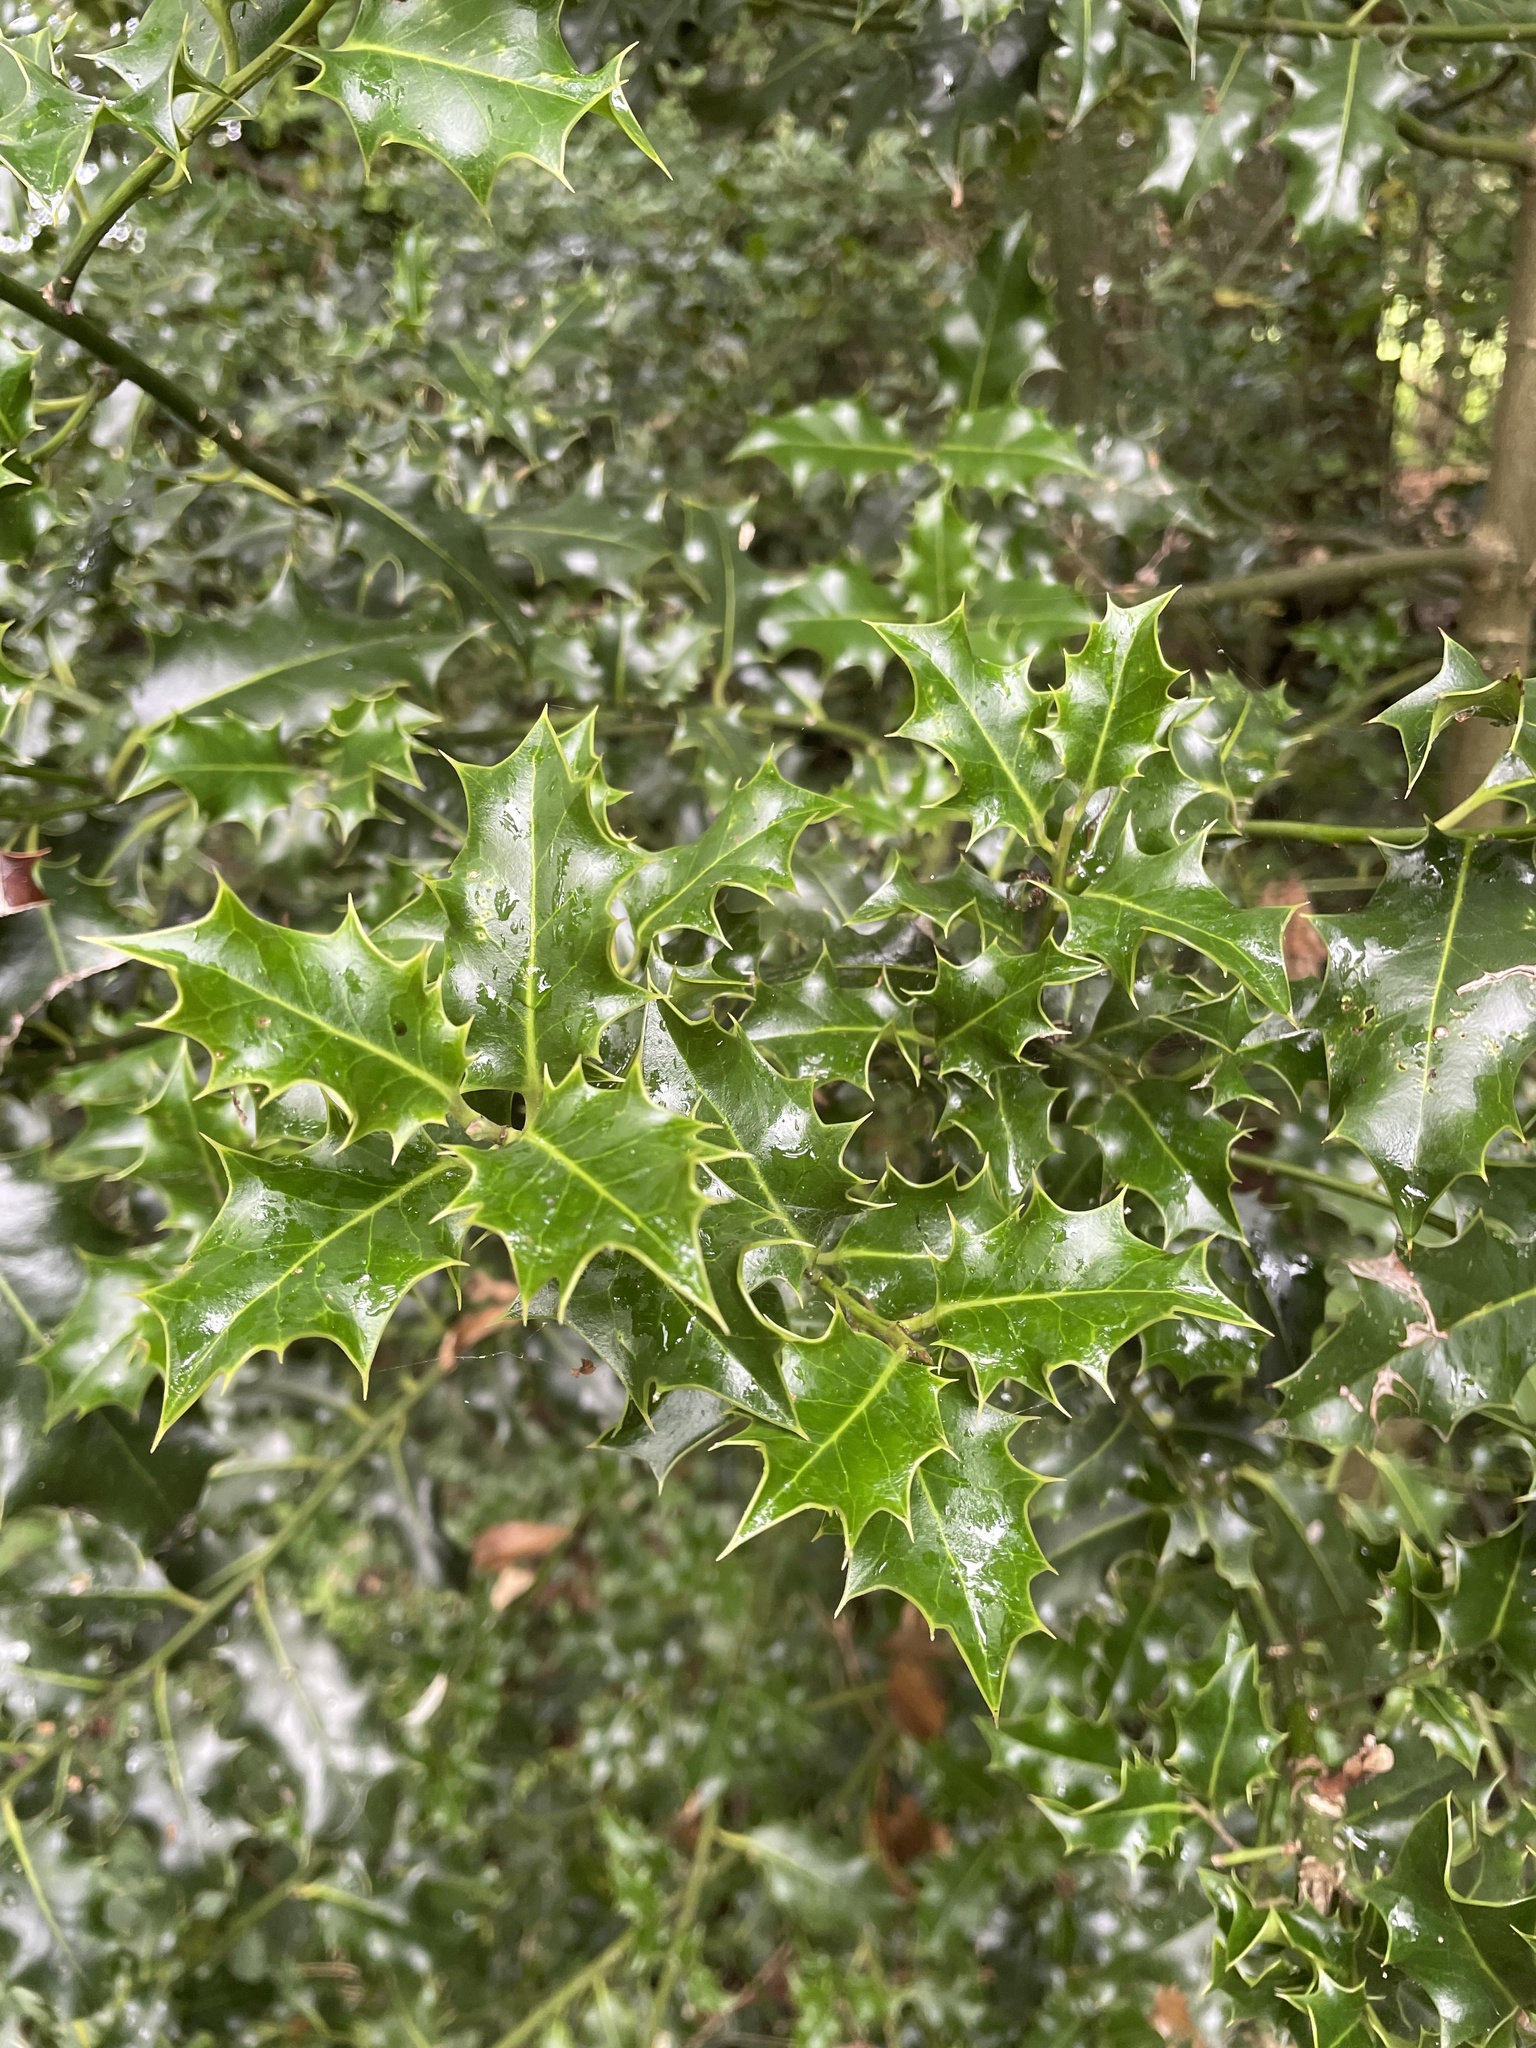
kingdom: Plantae
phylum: Tracheophyta
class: Magnoliopsida
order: Aquifoliales
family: Aquifoliaceae
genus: Ilex
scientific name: Ilex aquifolium
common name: English holly
